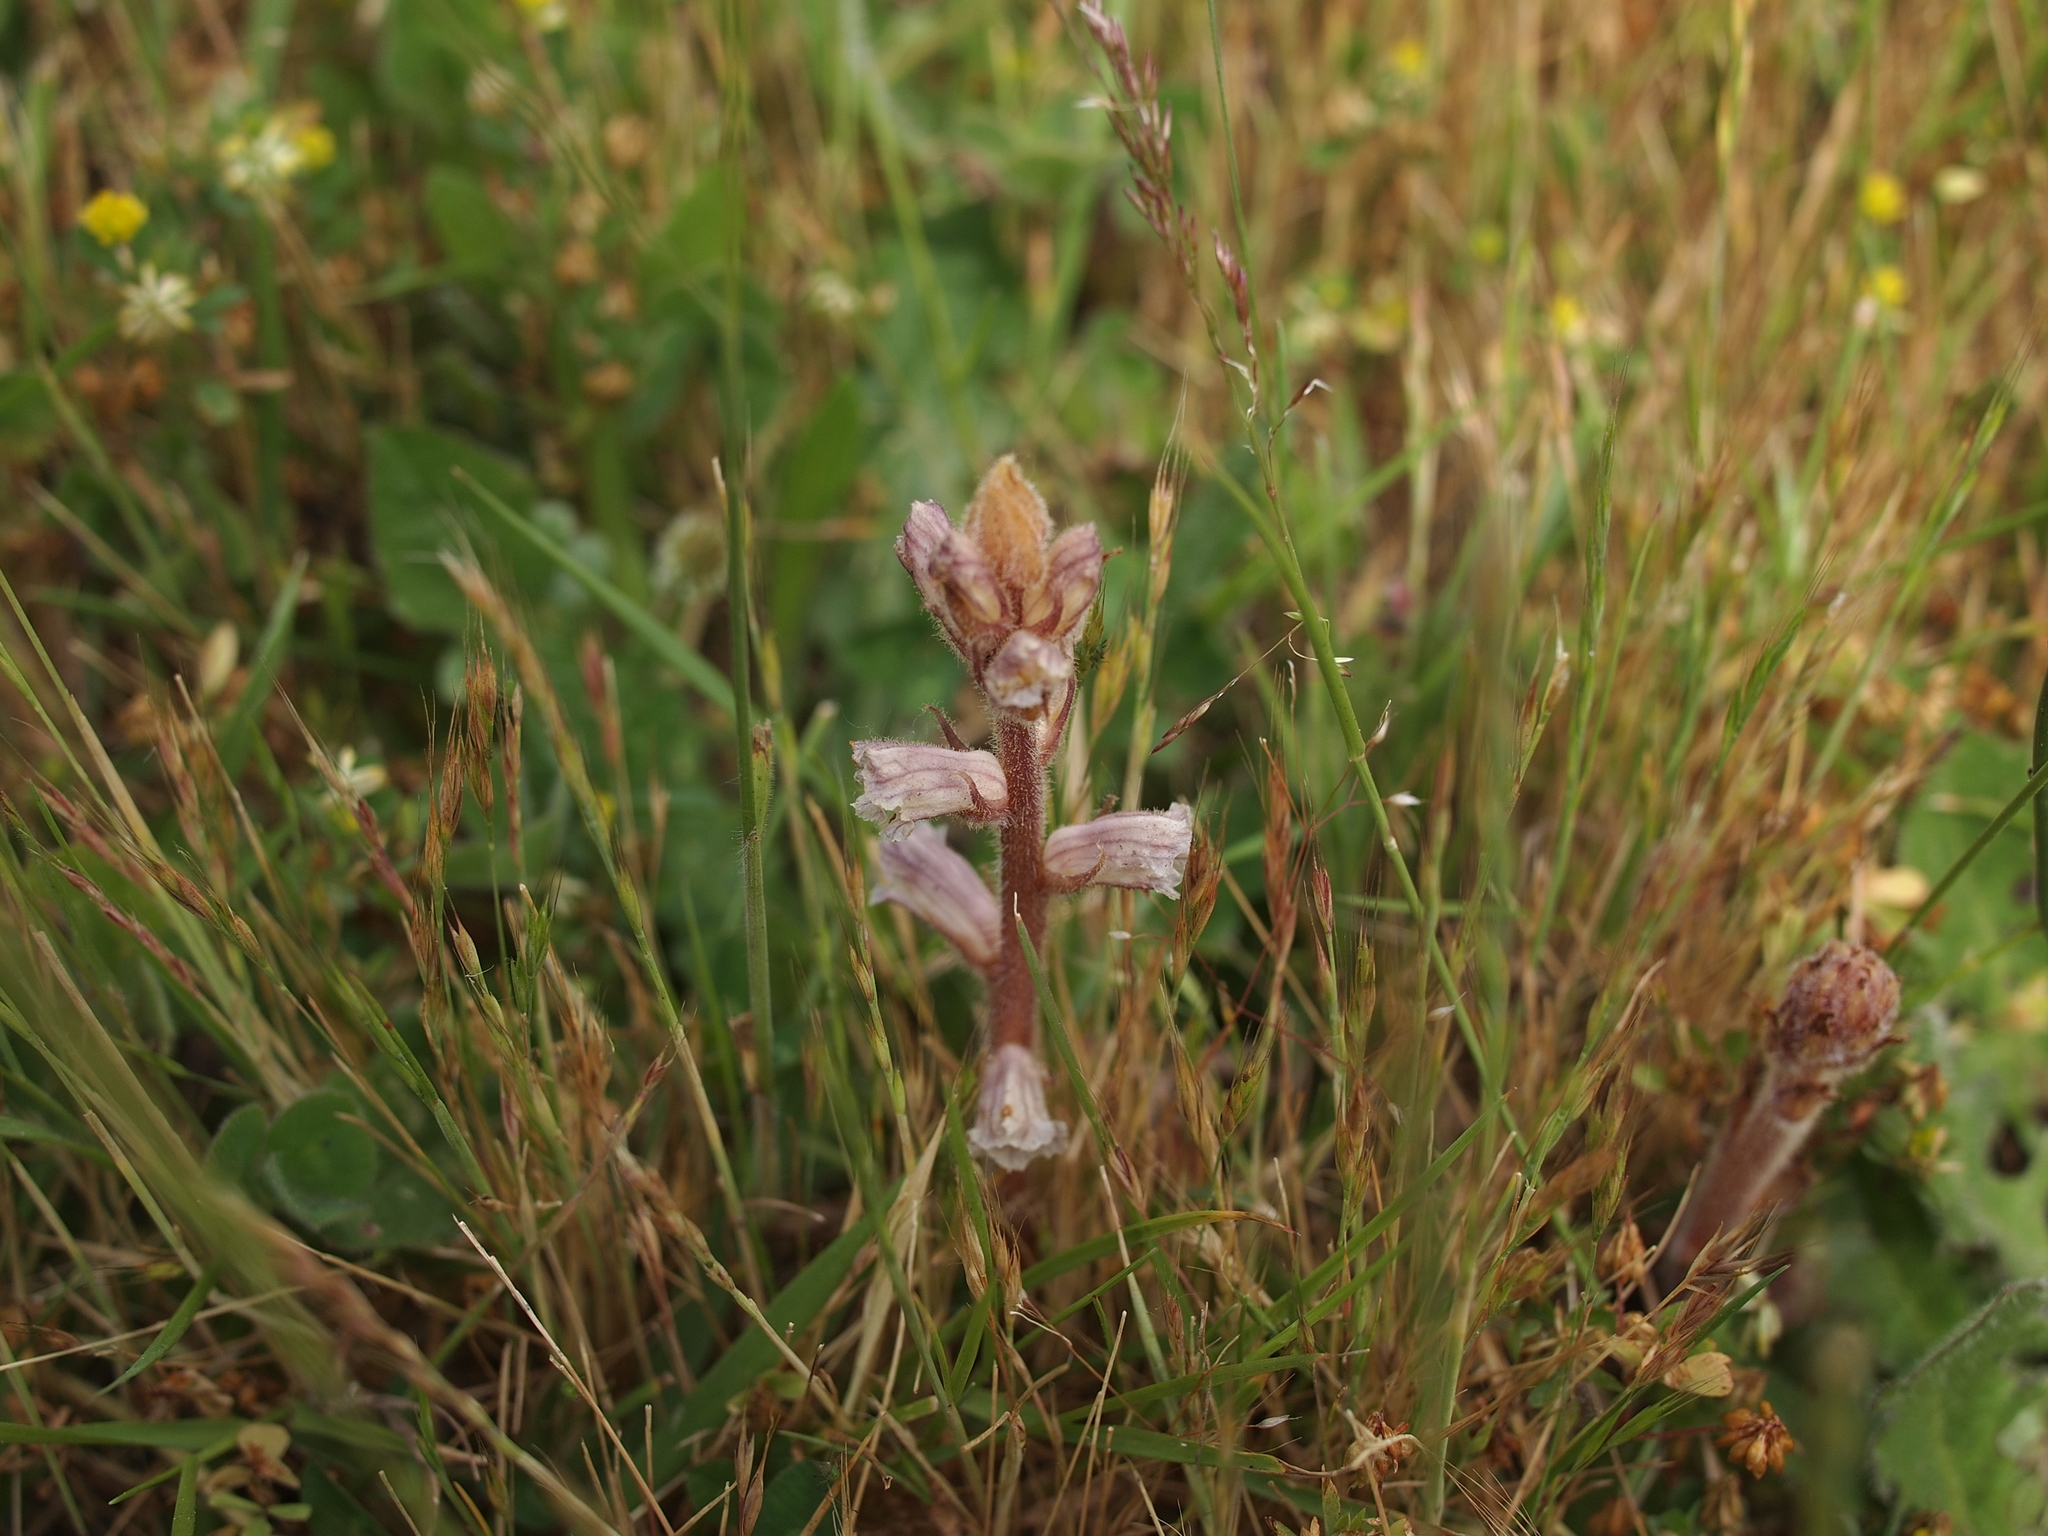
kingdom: Plantae
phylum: Tracheophyta
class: Magnoliopsida
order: Lamiales
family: Orobanchaceae
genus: Orobanche
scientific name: Orobanche minor
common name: Common broomrape
